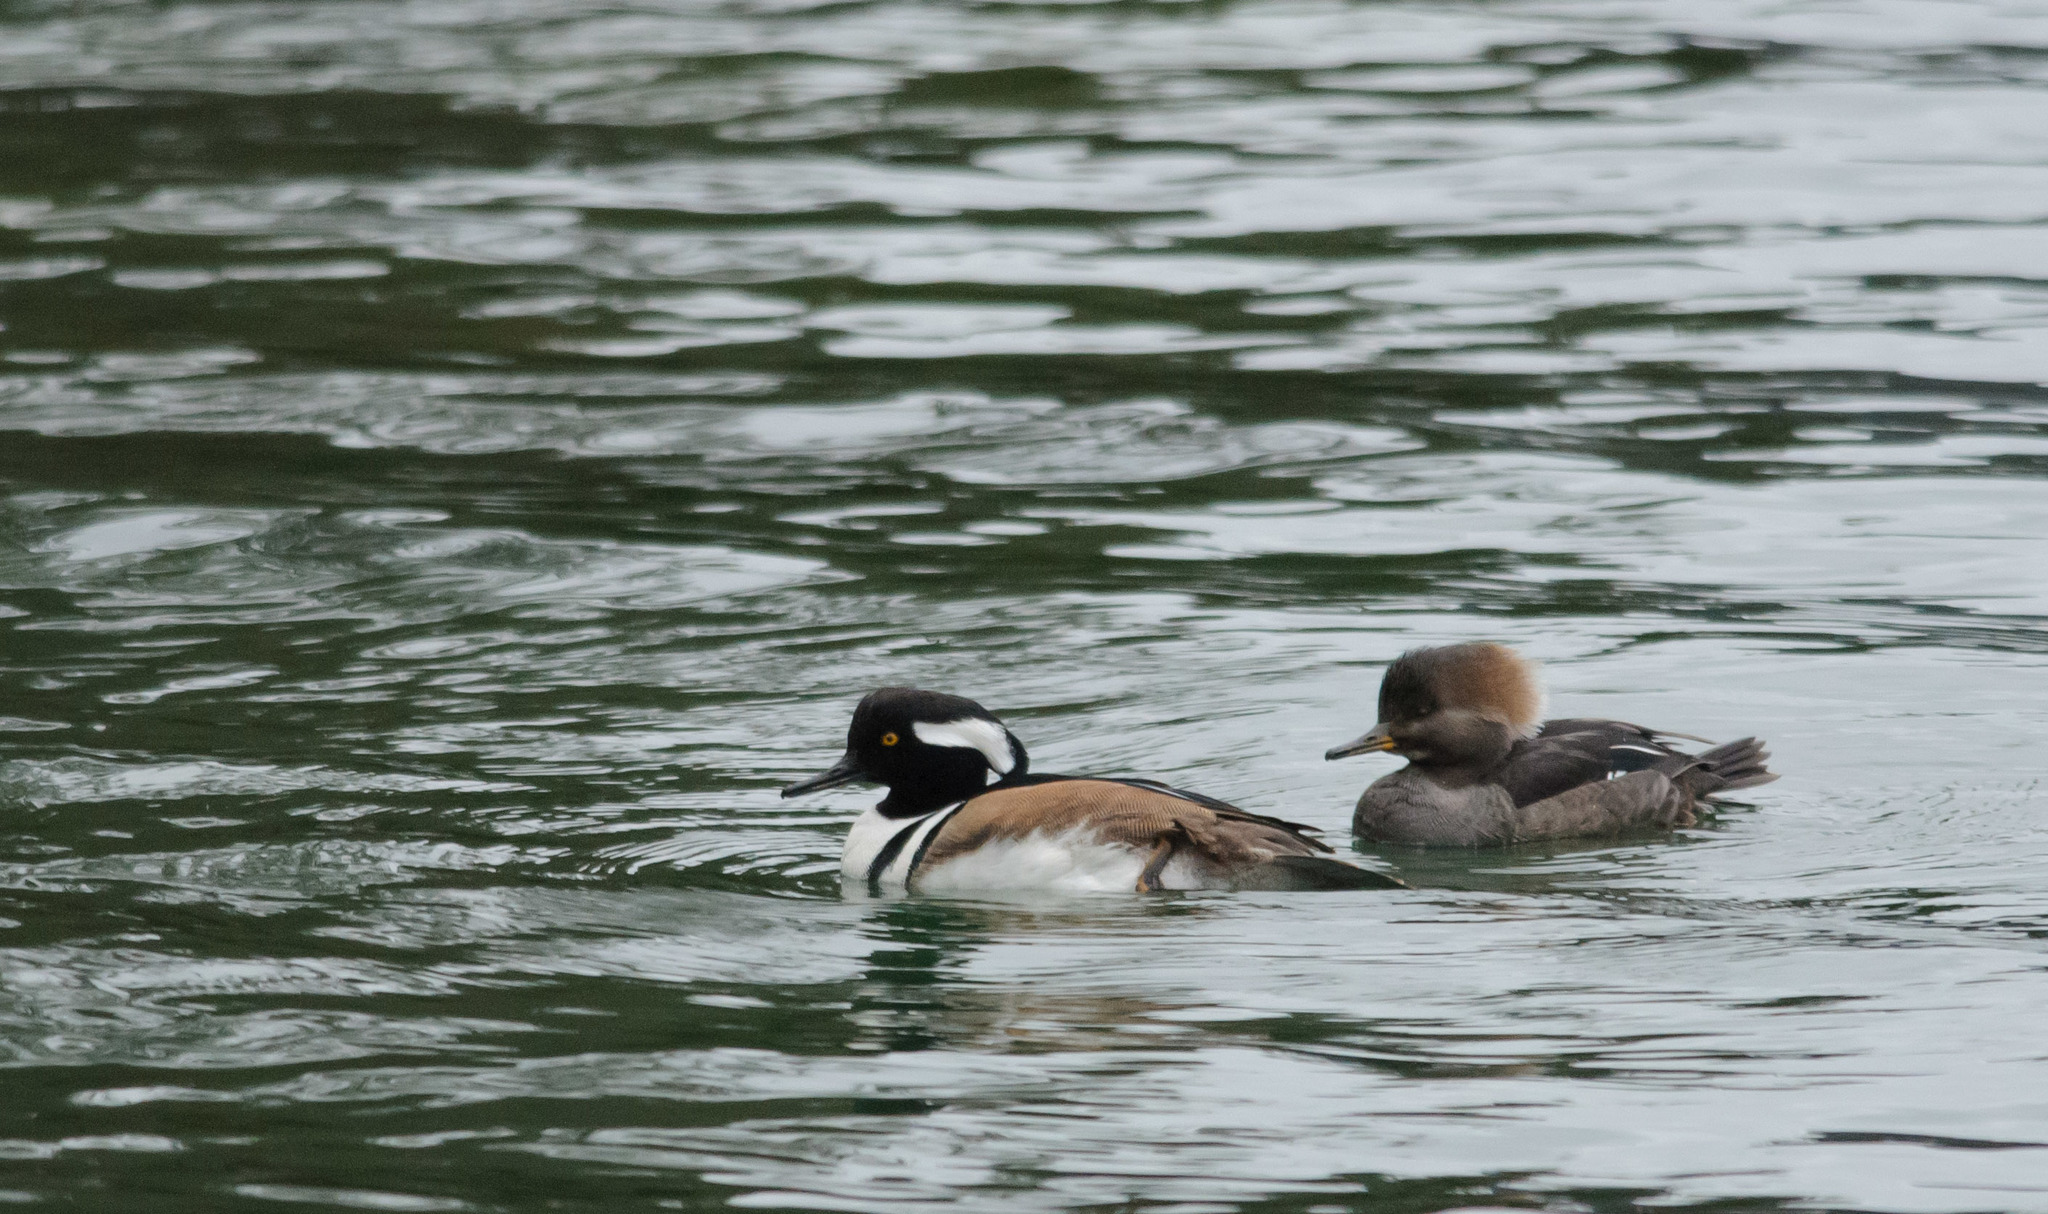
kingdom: Animalia
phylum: Chordata
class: Aves
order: Anseriformes
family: Anatidae
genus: Lophodytes
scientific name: Lophodytes cucullatus
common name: Hooded merganser
